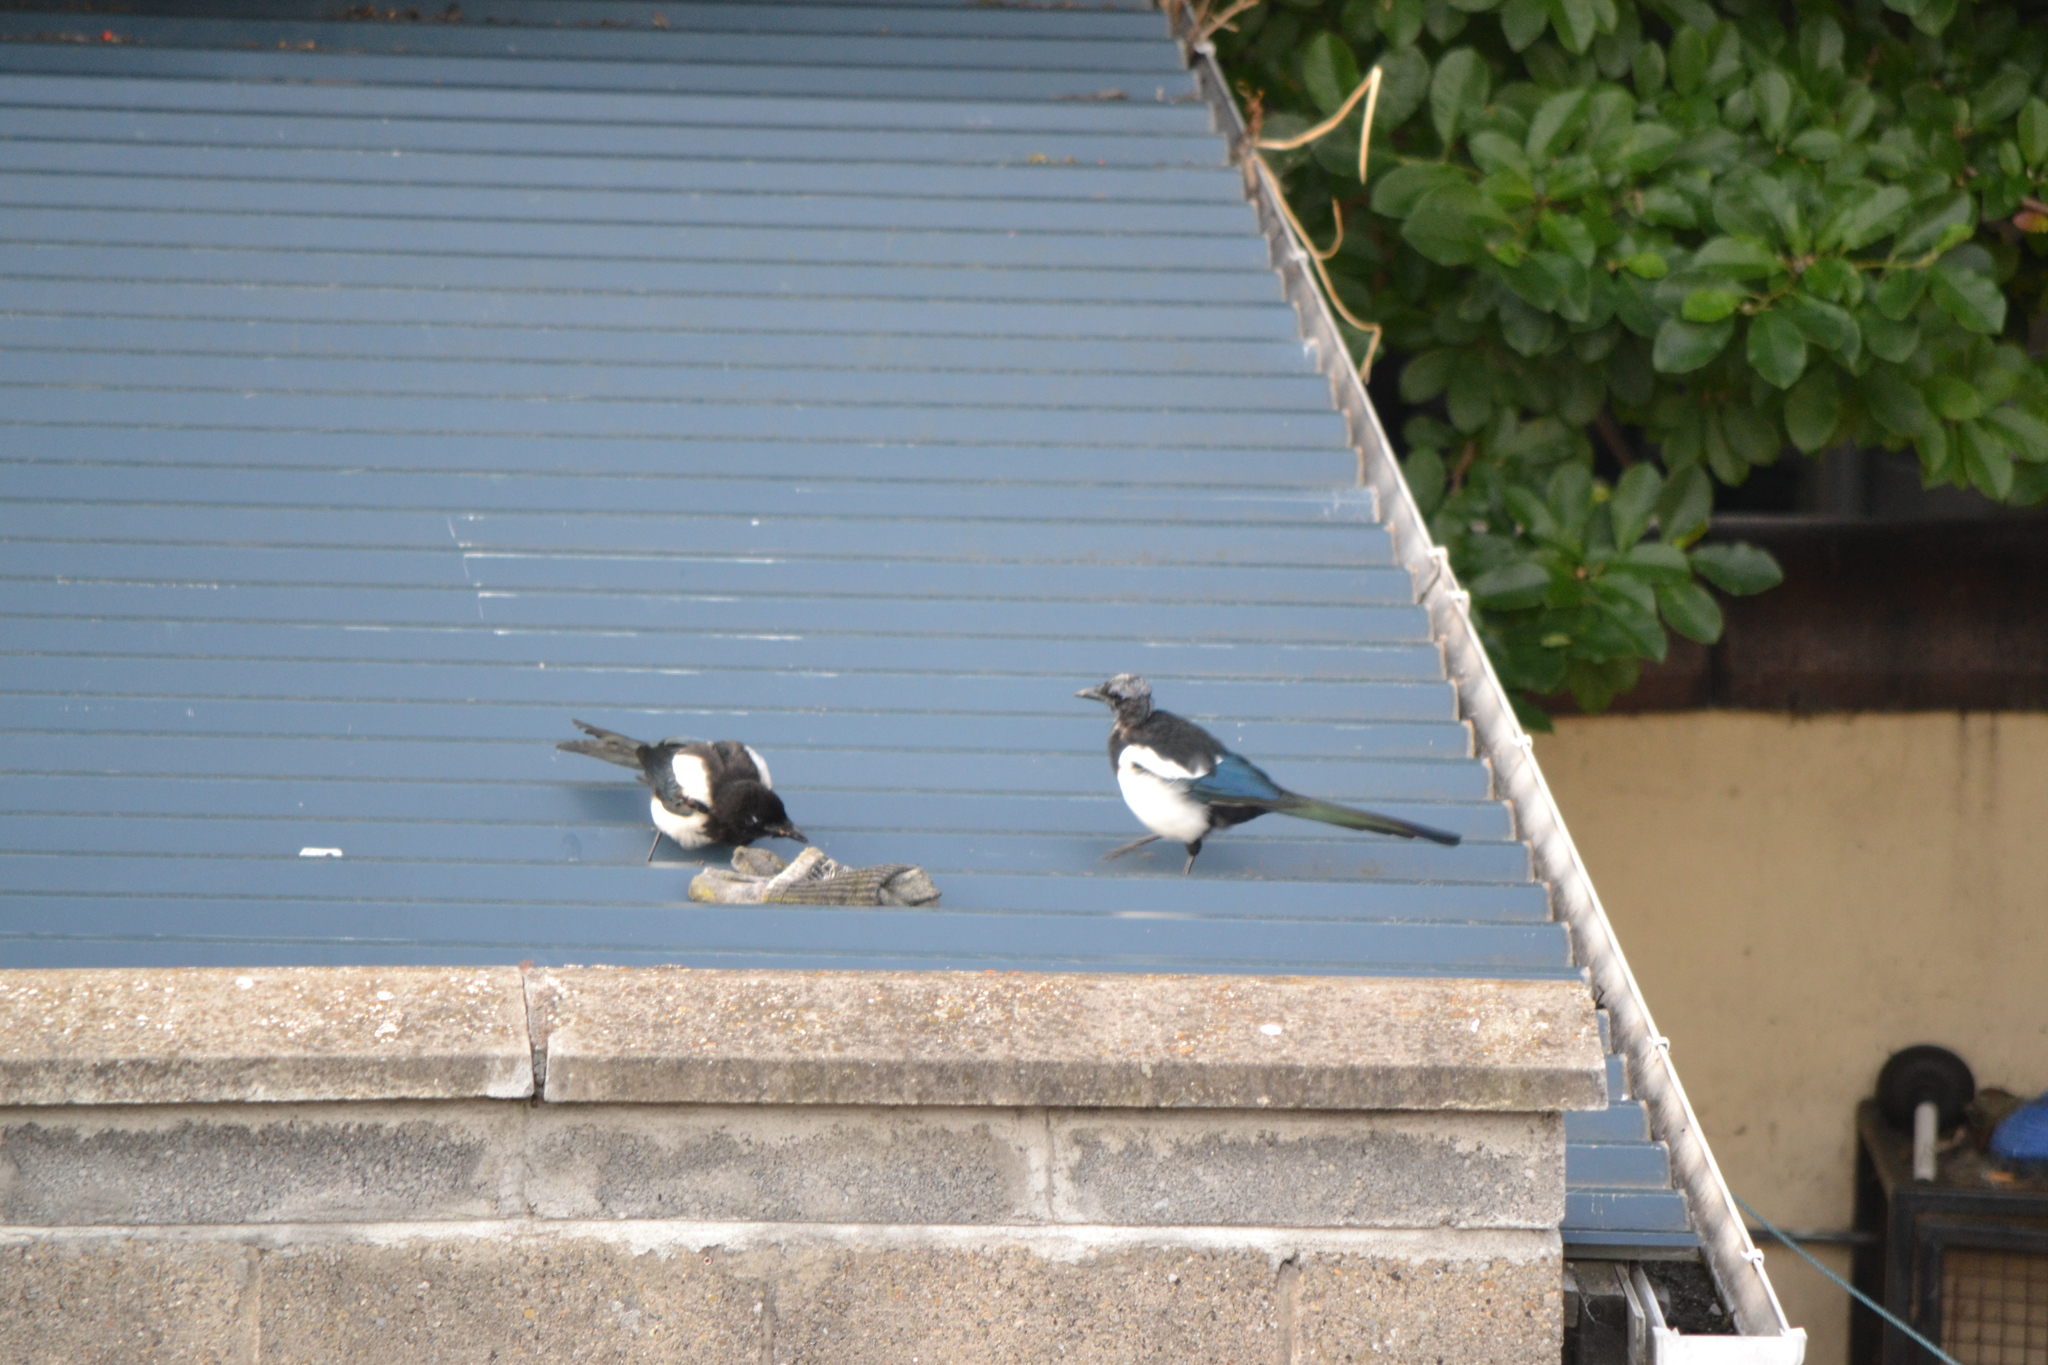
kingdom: Animalia
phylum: Chordata
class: Aves
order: Passeriformes
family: Corvidae
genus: Pica
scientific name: Pica pica
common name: Eurasian magpie
